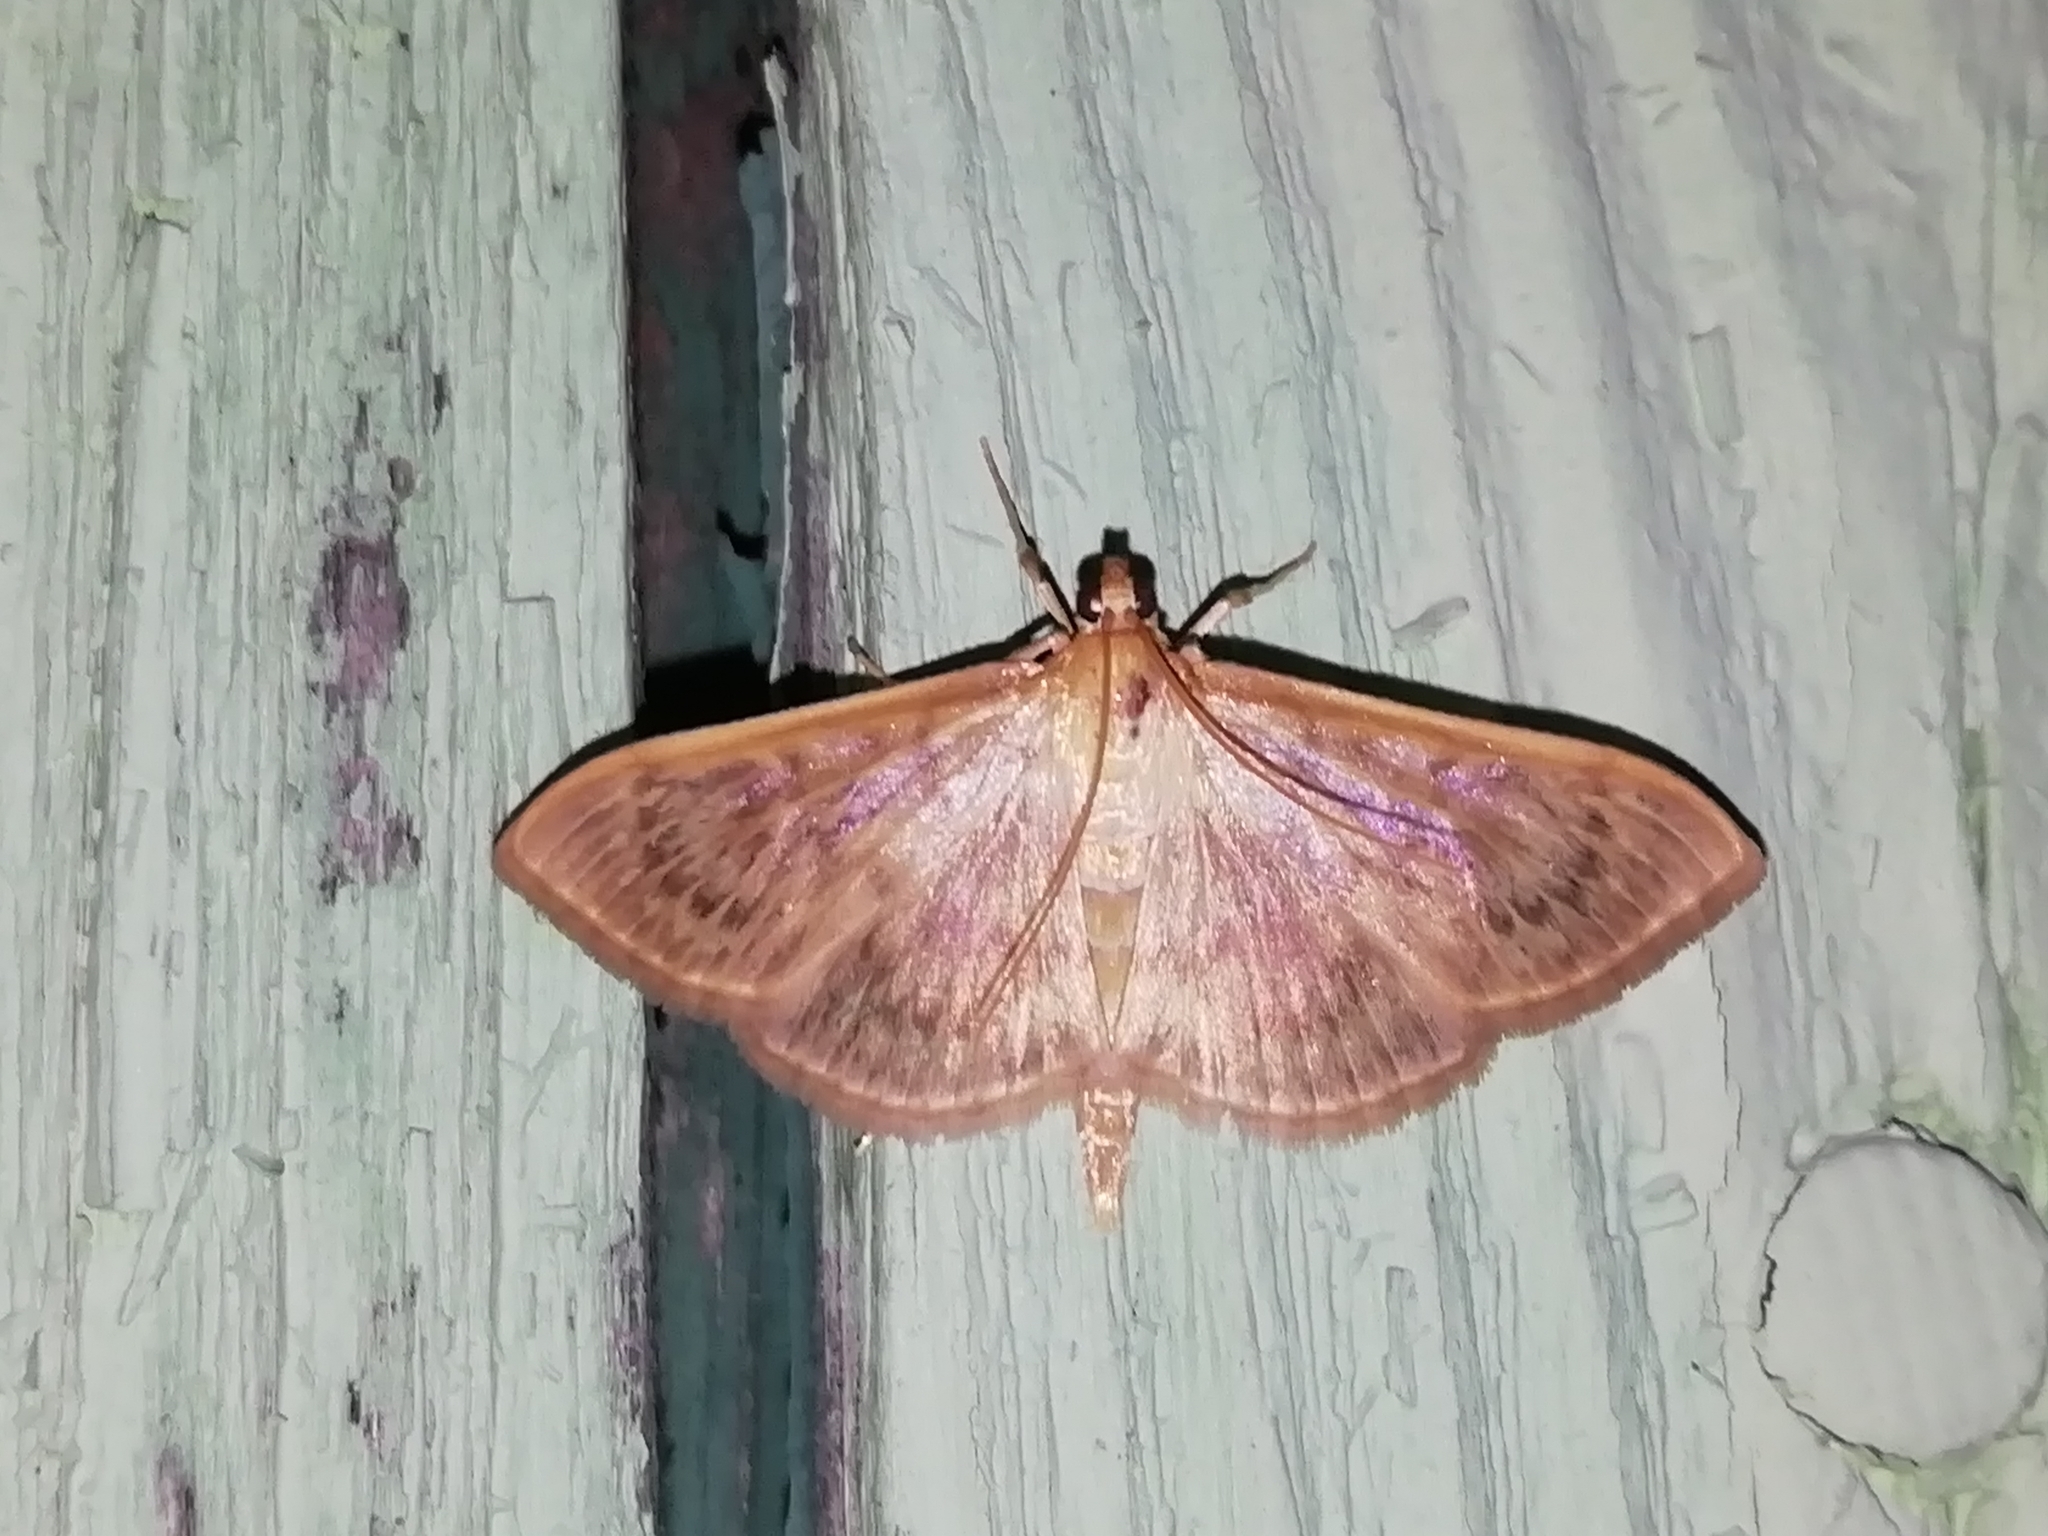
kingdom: Animalia
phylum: Arthropoda
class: Insecta
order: Lepidoptera
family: Crambidae
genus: Patania
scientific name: Patania ruralis
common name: Mother of pearl
